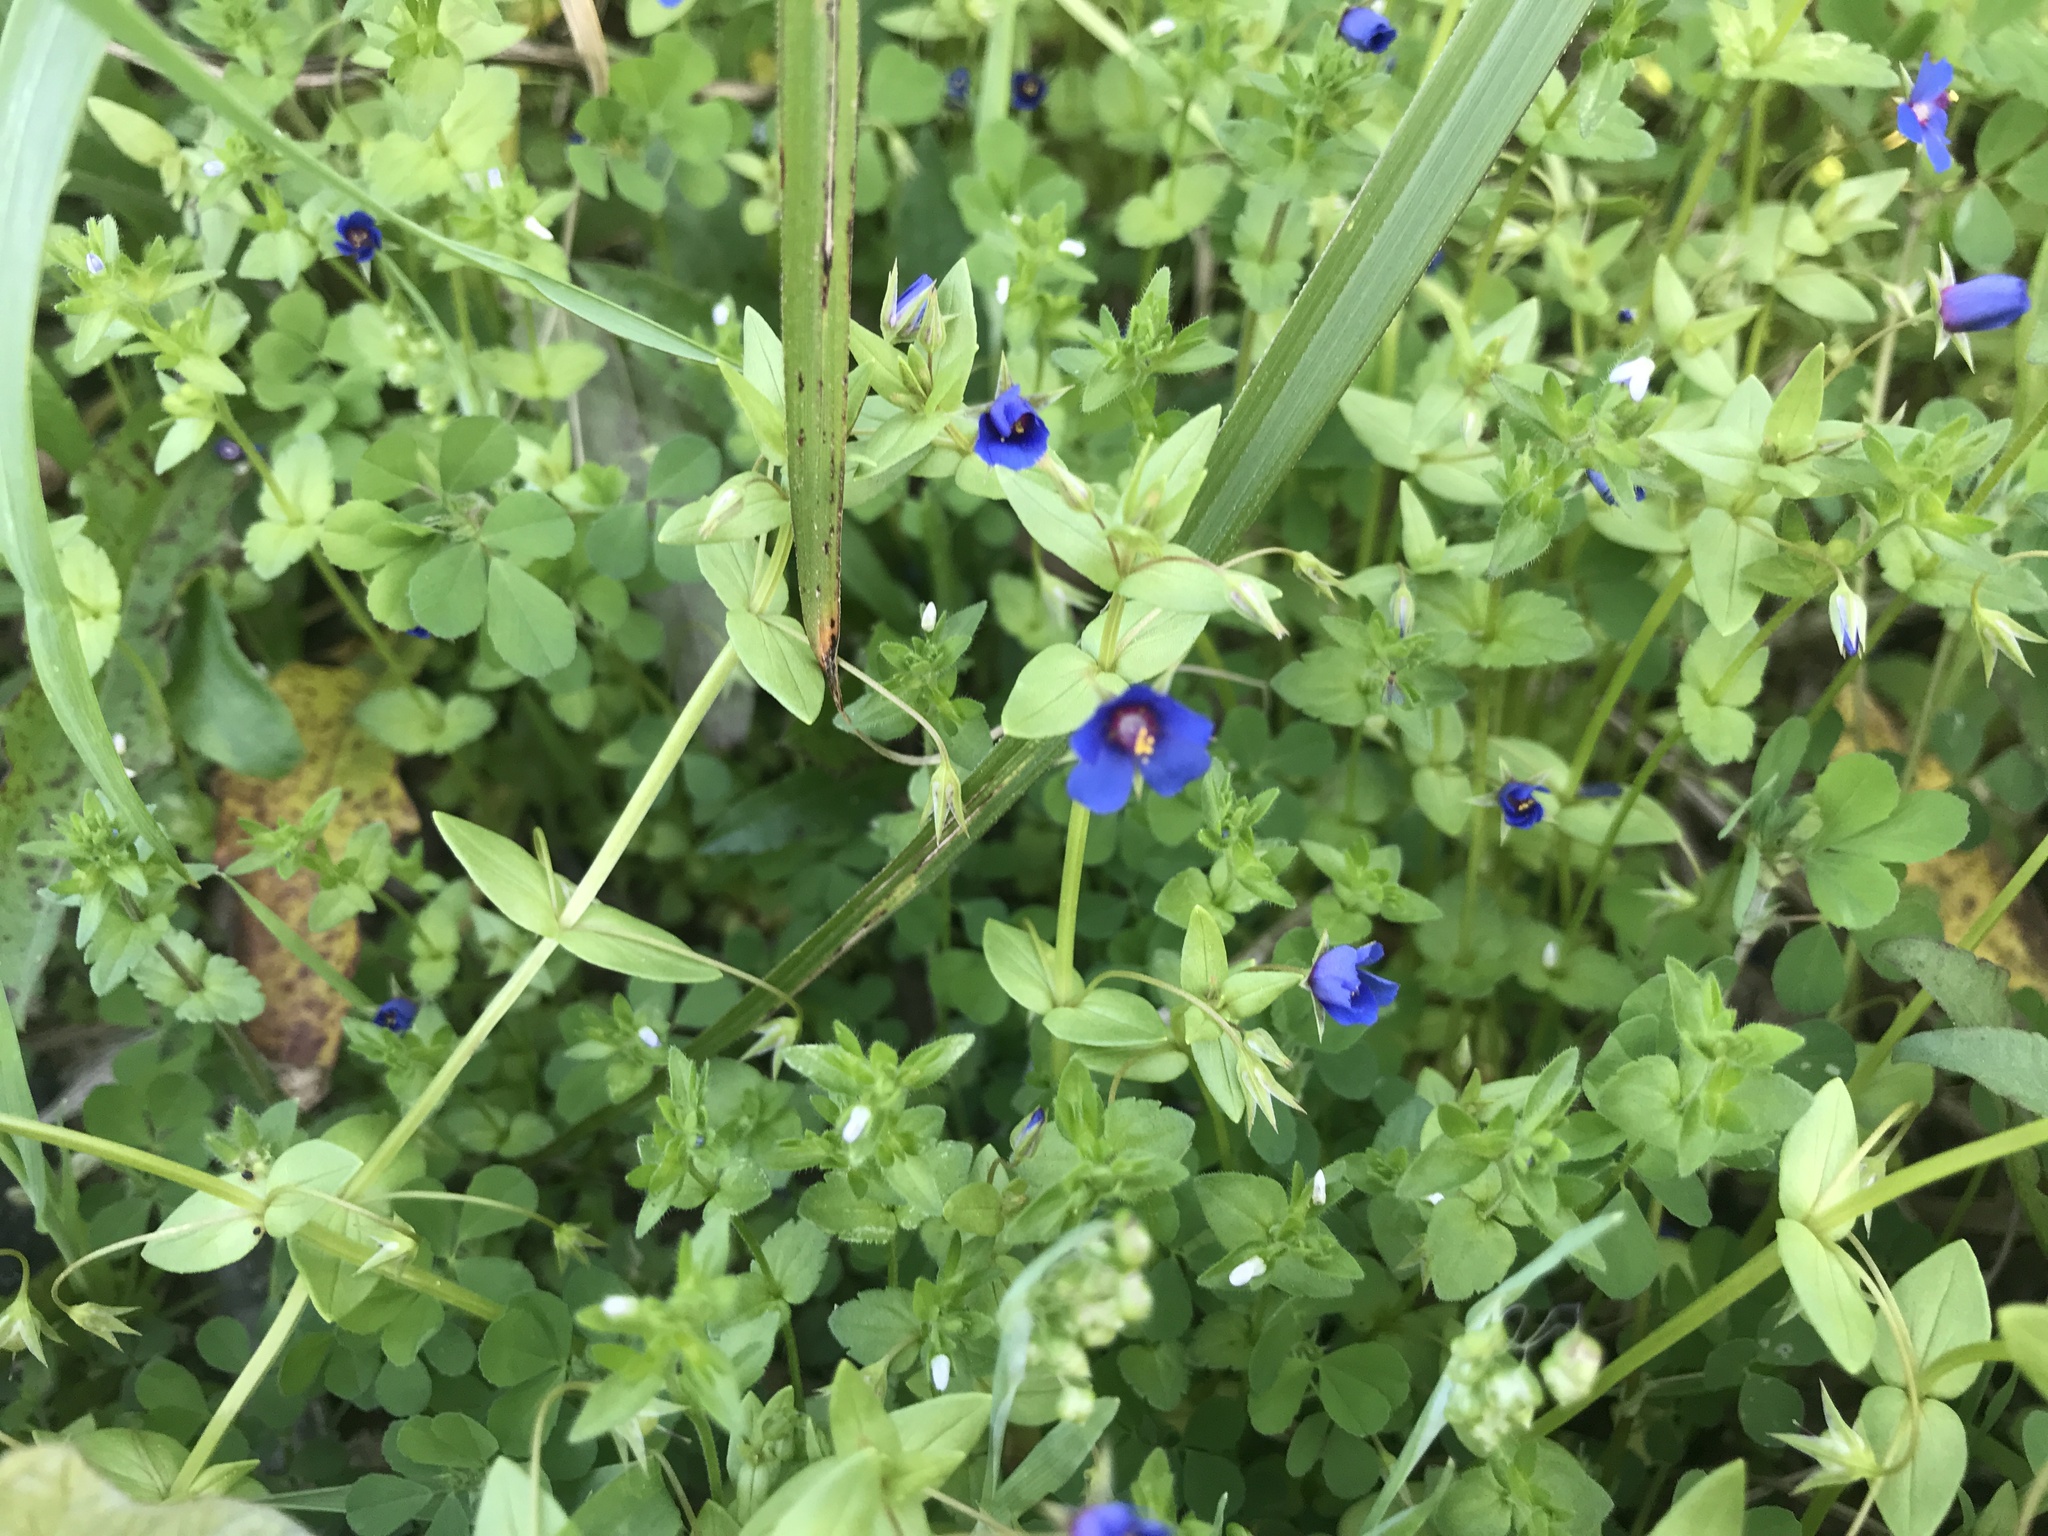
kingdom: Plantae
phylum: Tracheophyta
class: Magnoliopsida
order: Ericales
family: Primulaceae
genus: Lysimachia
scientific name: Lysimachia foemina
